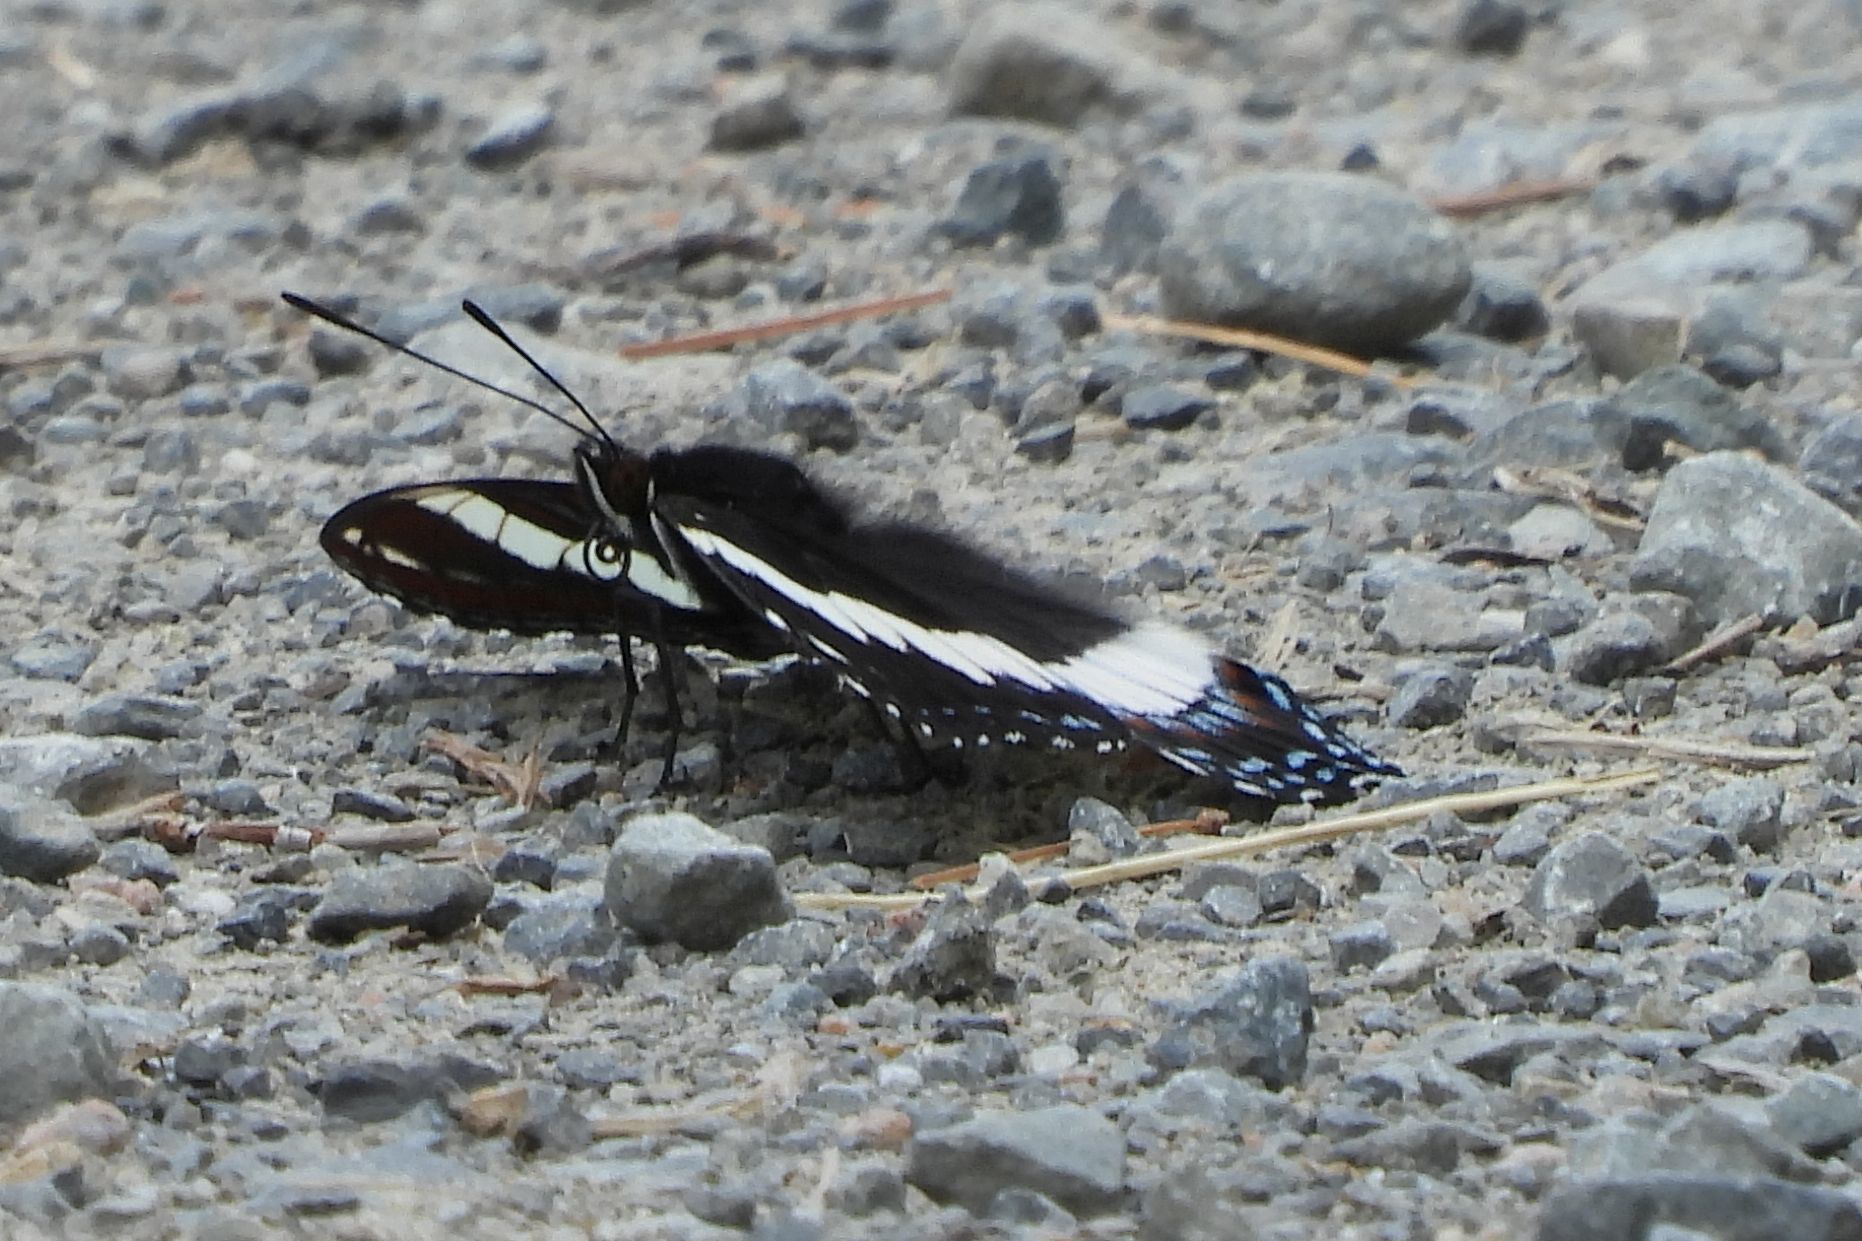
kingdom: Animalia
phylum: Arthropoda
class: Insecta
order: Lepidoptera
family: Nymphalidae
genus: Limenitis
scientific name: Limenitis arthemis
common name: Red-spotted admiral
